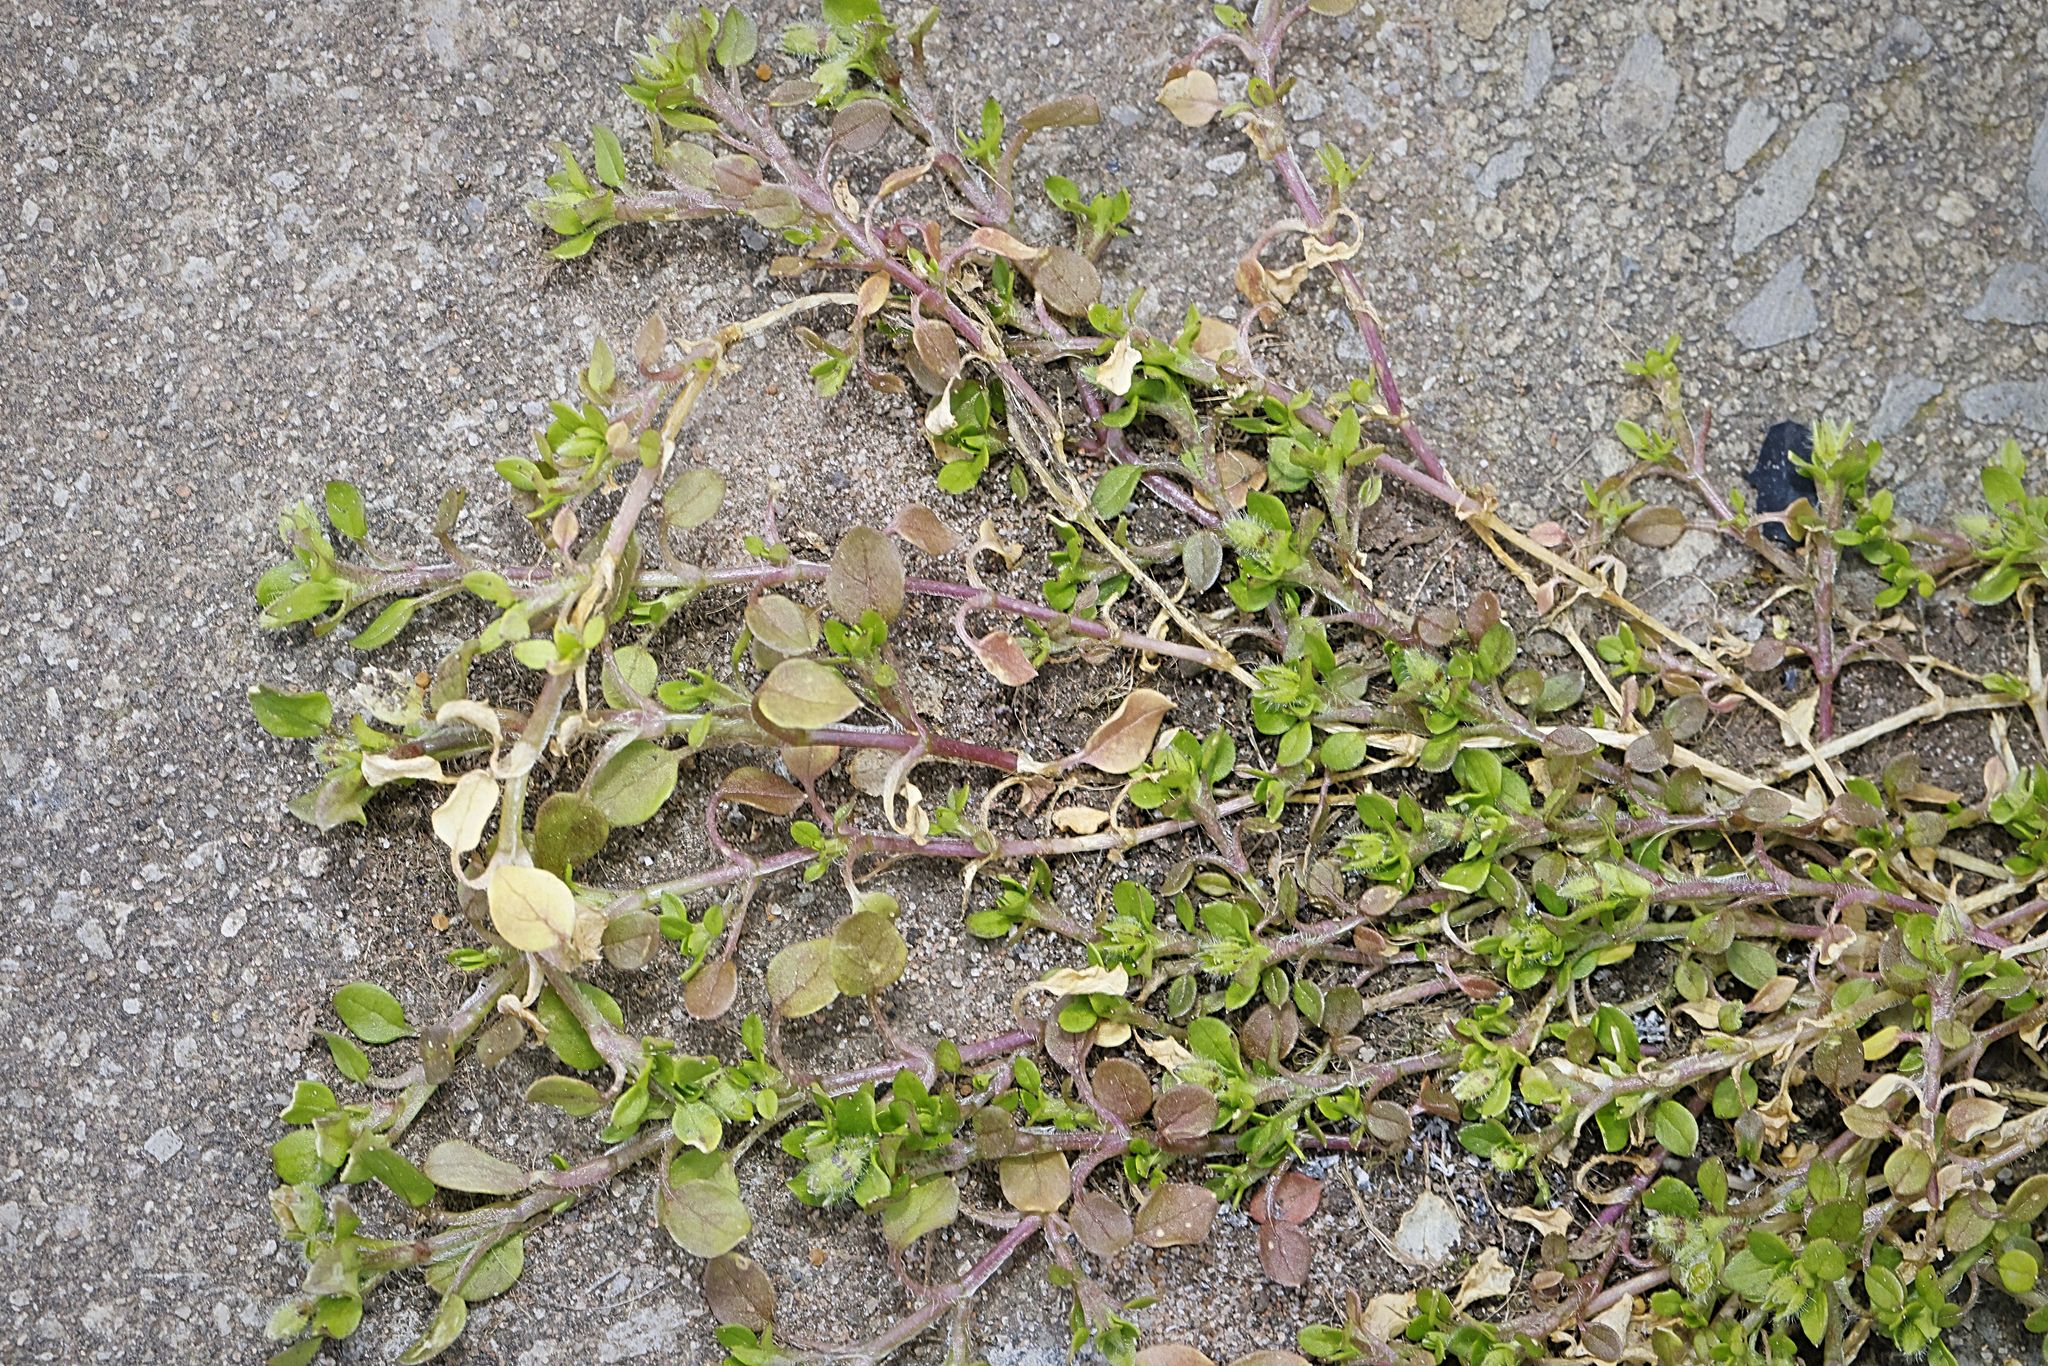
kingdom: Plantae
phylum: Tracheophyta
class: Magnoliopsida
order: Caryophyllales
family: Caryophyllaceae
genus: Stellaria
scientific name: Stellaria media
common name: Common chickweed
